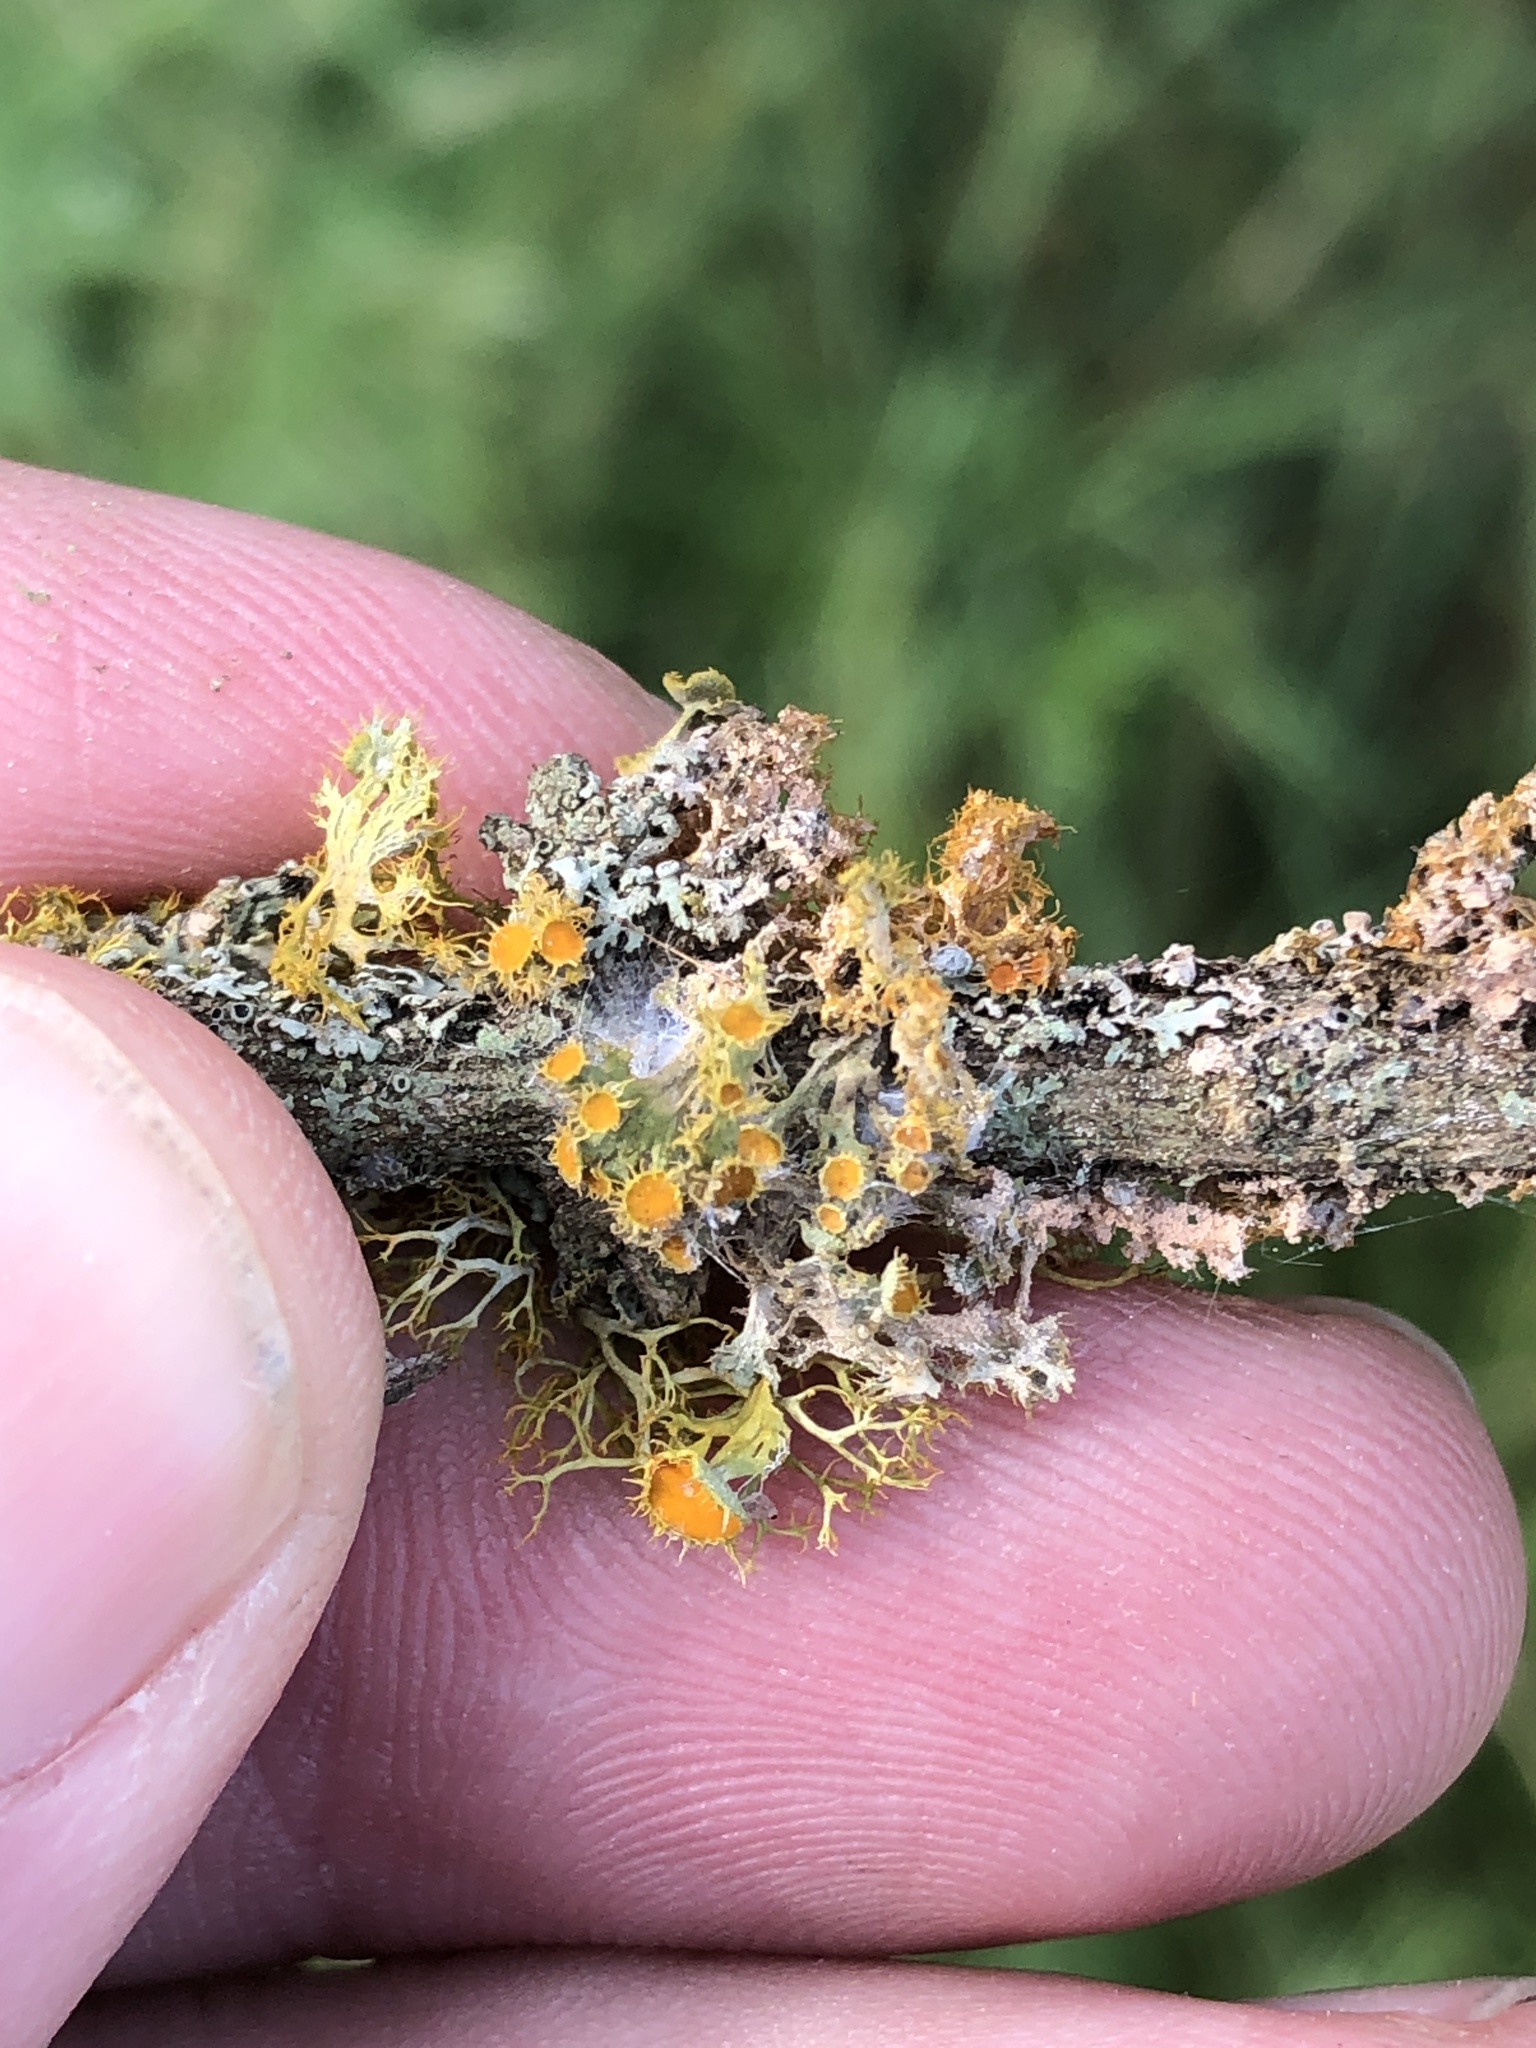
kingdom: Fungi
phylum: Ascomycota
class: Lecanoromycetes
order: Teloschistales
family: Teloschistaceae
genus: Niorma
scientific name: Niorma chrysophthalma
